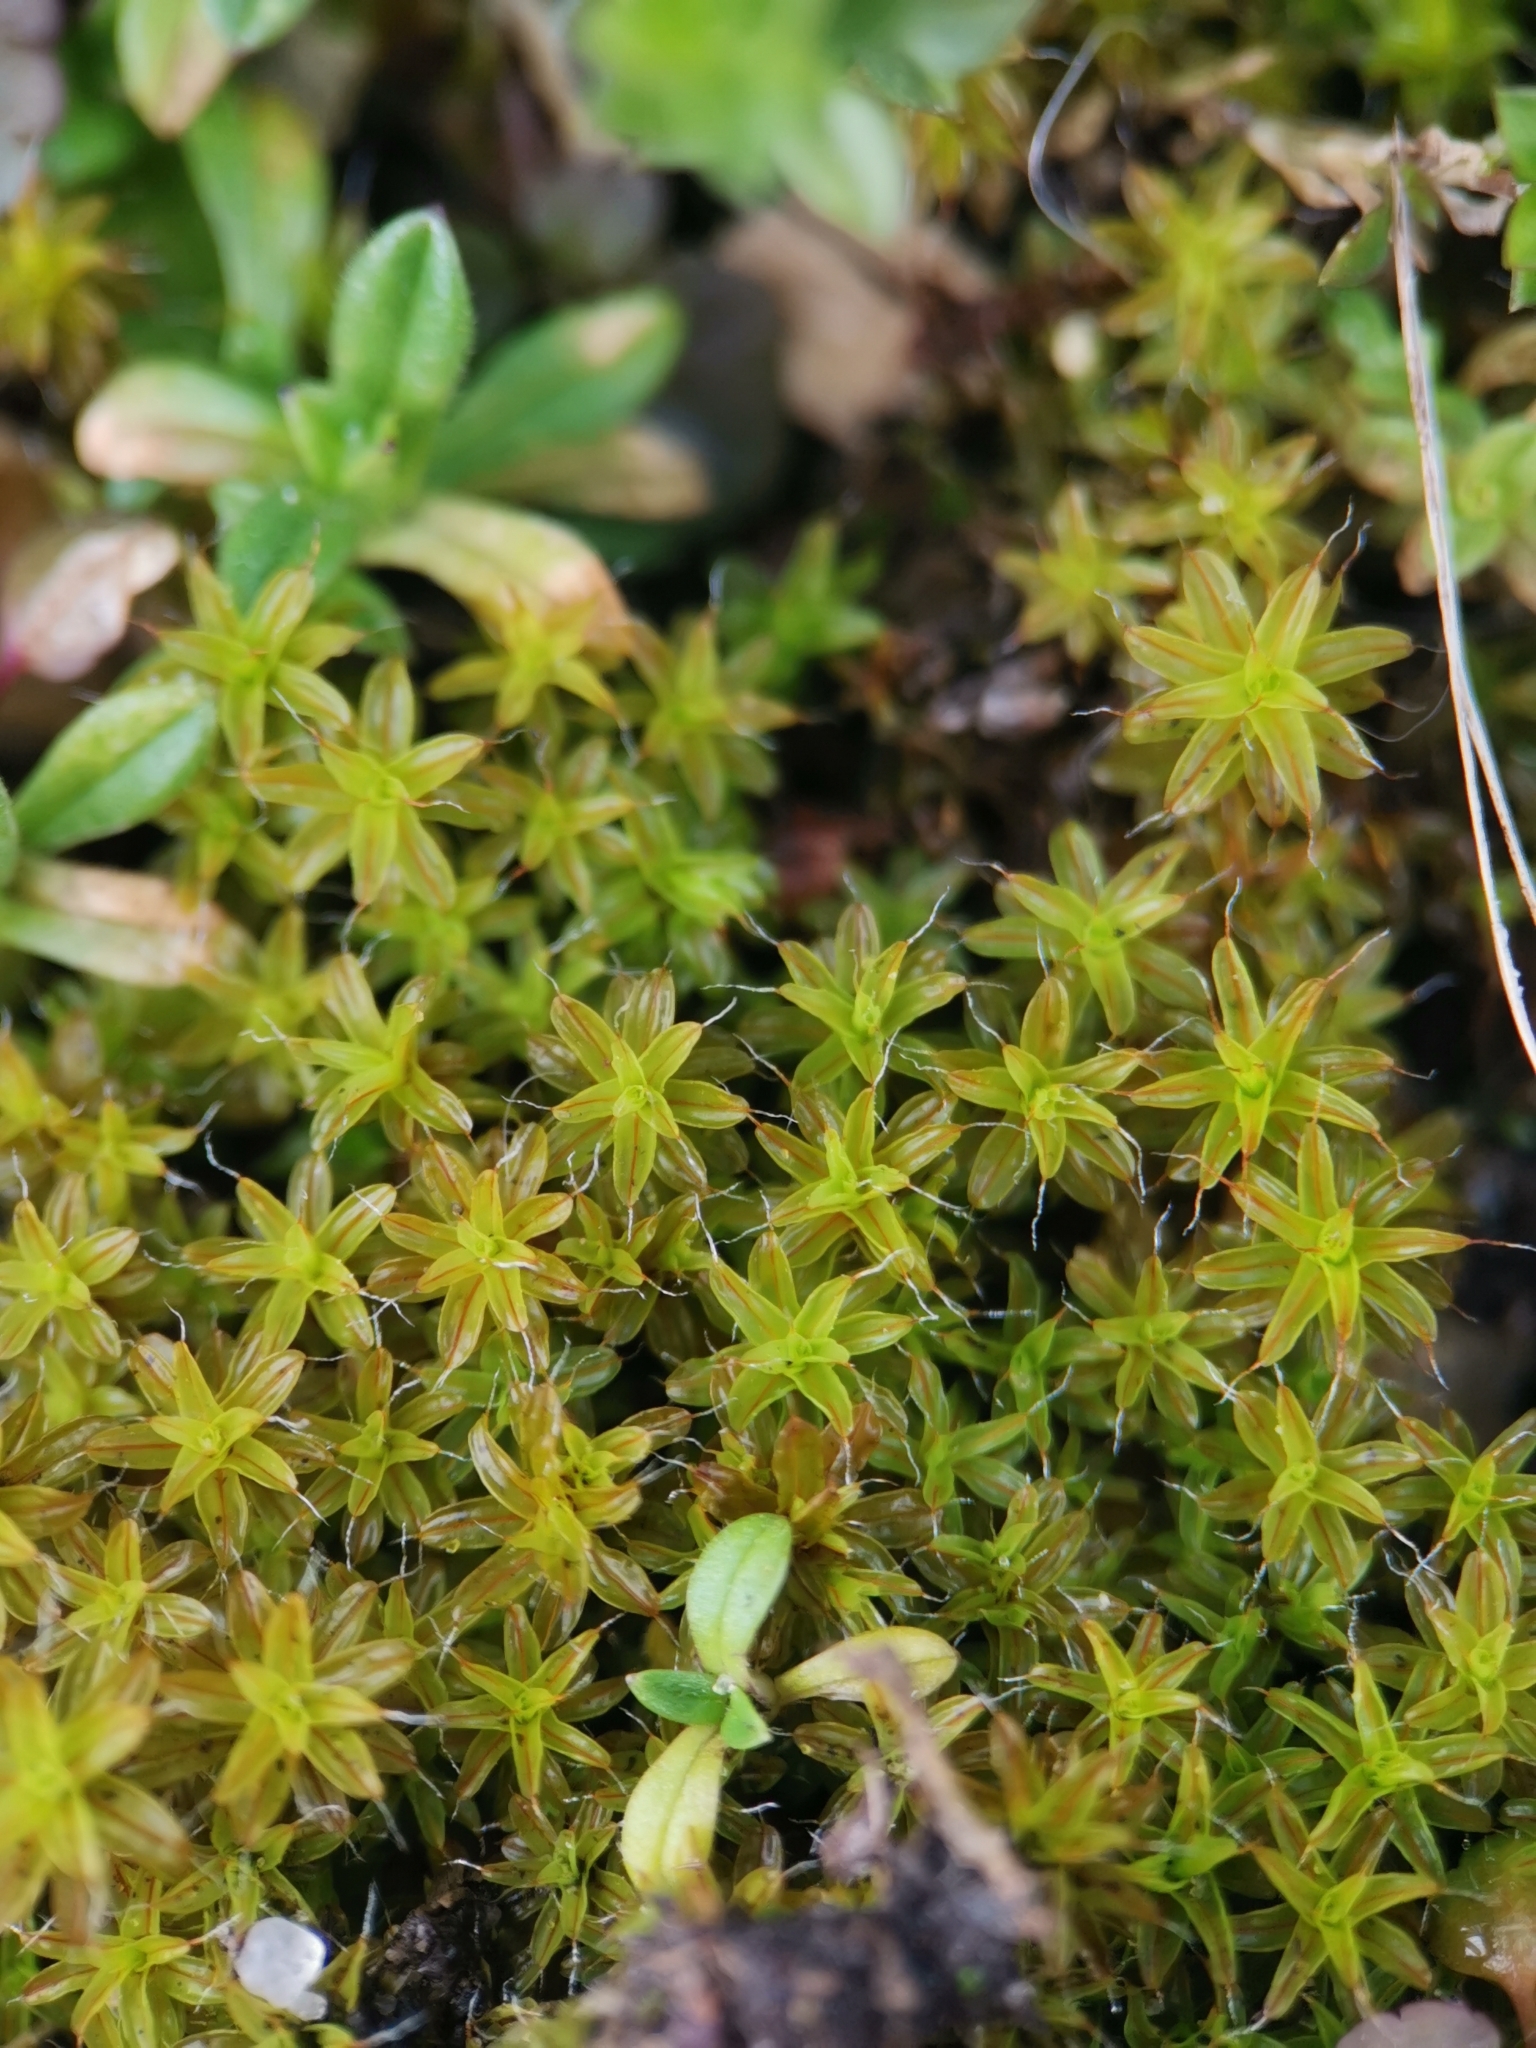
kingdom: Plantae
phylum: Bryophyta
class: Bryopsida
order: Pottiales
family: Pottiaceae
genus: Syntrichia
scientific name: Syntrichia ruralis
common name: Sidewalk screw moss
